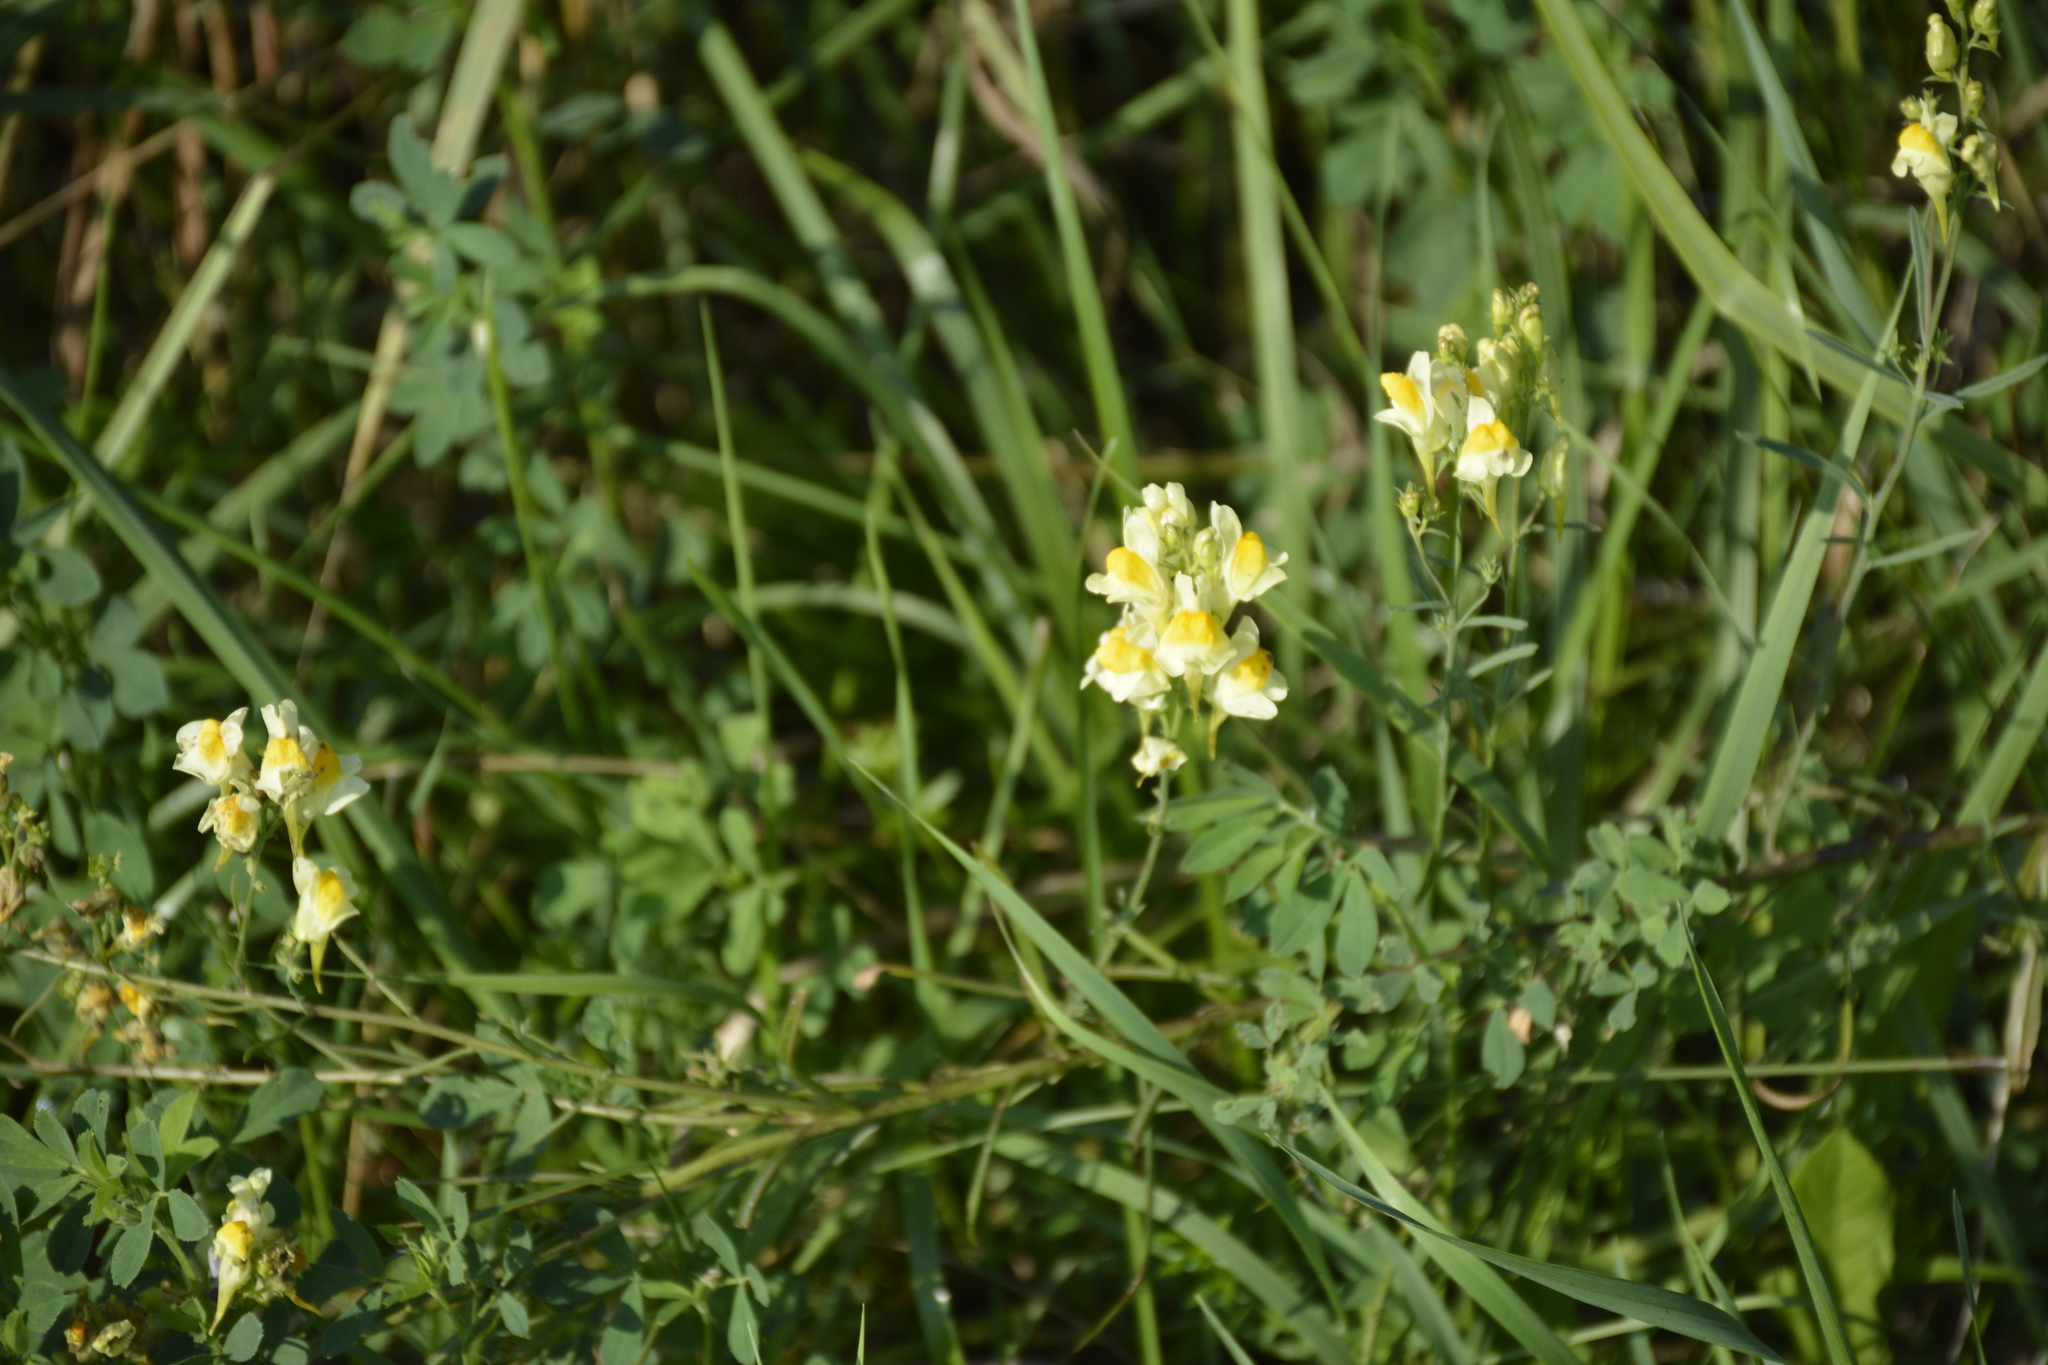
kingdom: Plantae
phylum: Tracheophyta
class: Magnoliopsida
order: Lamiales
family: Plantaginaceae
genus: Linaria
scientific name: Linaria vulgaris
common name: Butter and eggs
